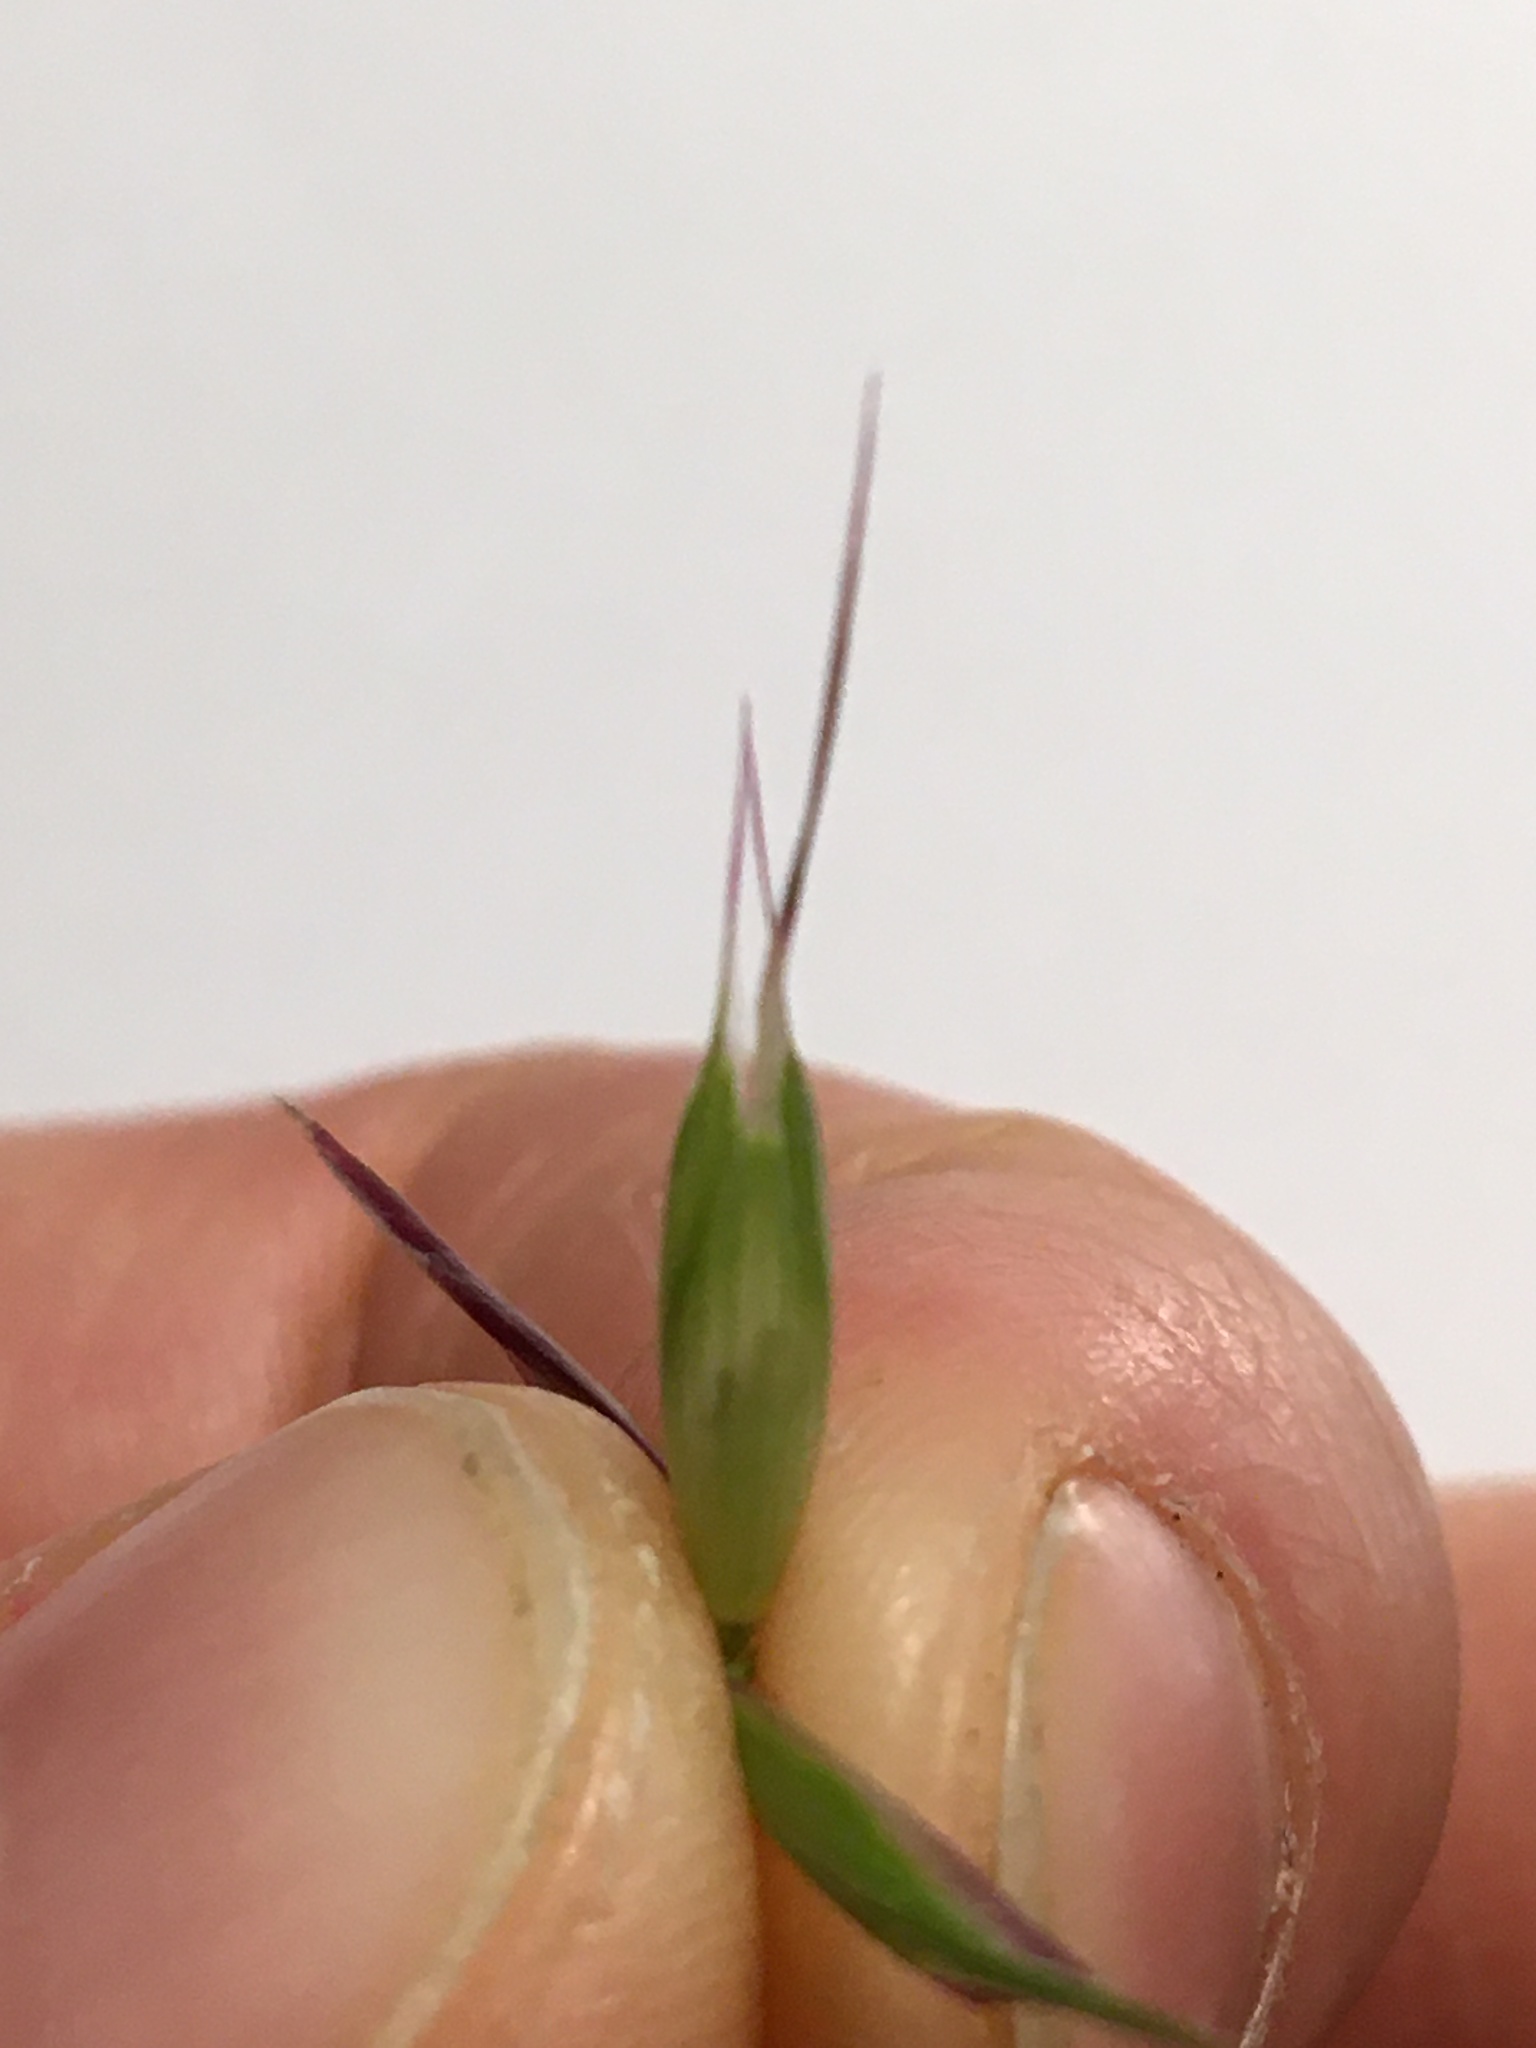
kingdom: Plantae
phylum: Tracheophyta
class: Liliopsida
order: Poales
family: Poaceae
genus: Danthonia
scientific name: Danthonia californica
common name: California oat grass
